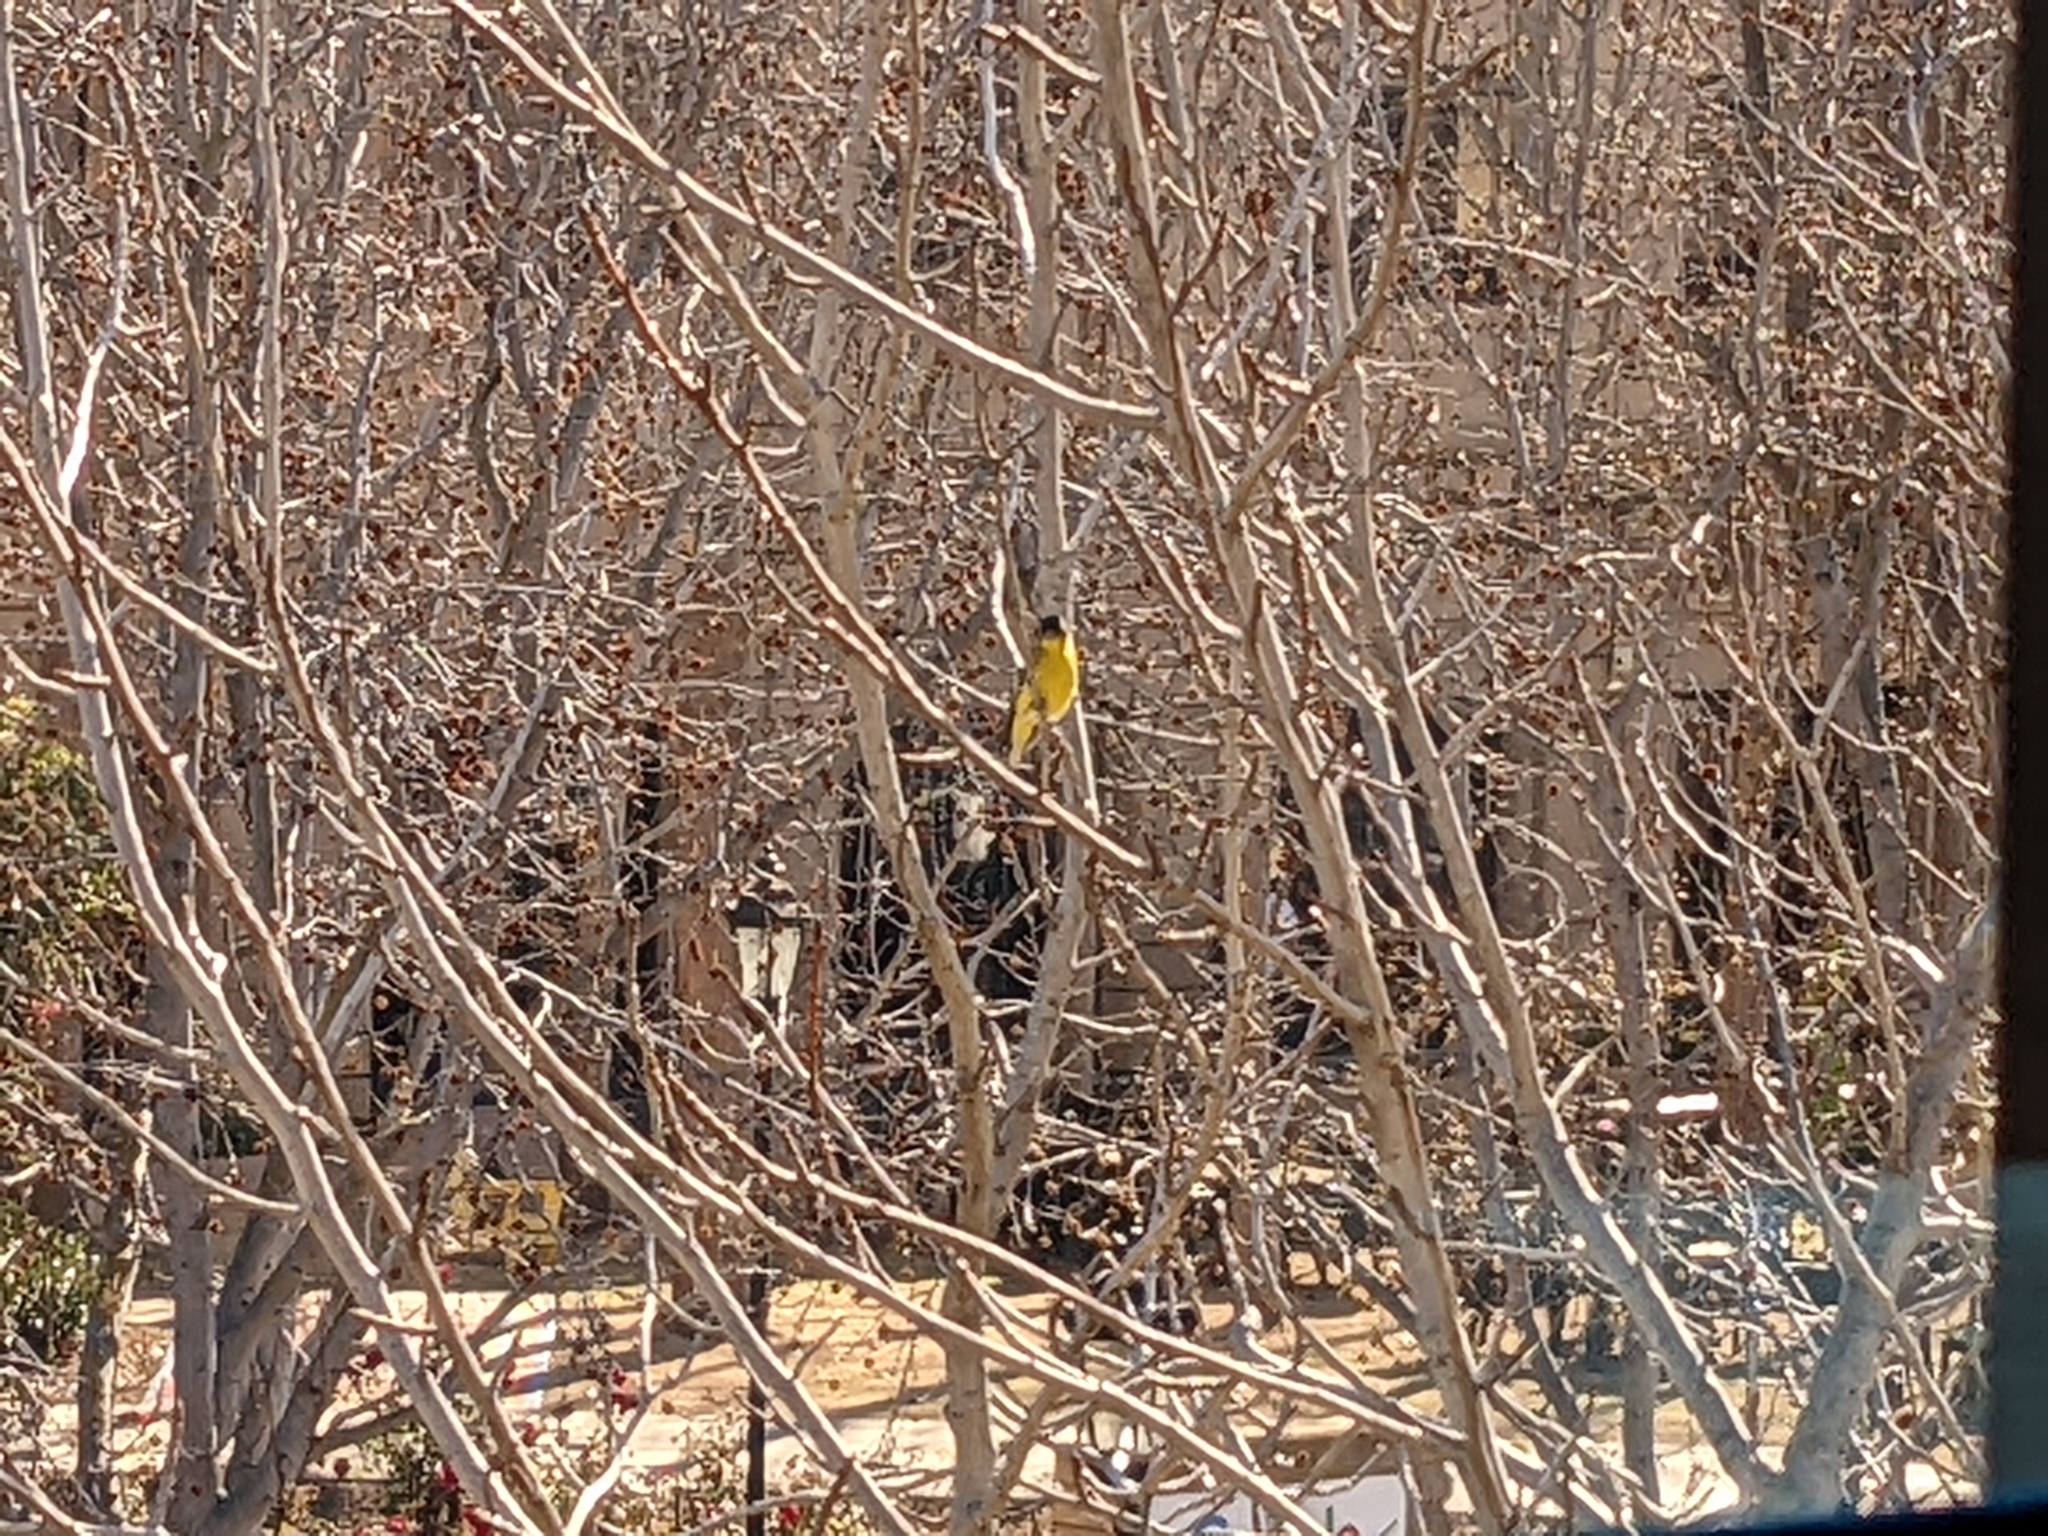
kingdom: Animalia
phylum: Chordata
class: Aves
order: Passeriformes
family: Fringillidae
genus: Spinus
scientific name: Spinus psaltria
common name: Lesser goldfinch
